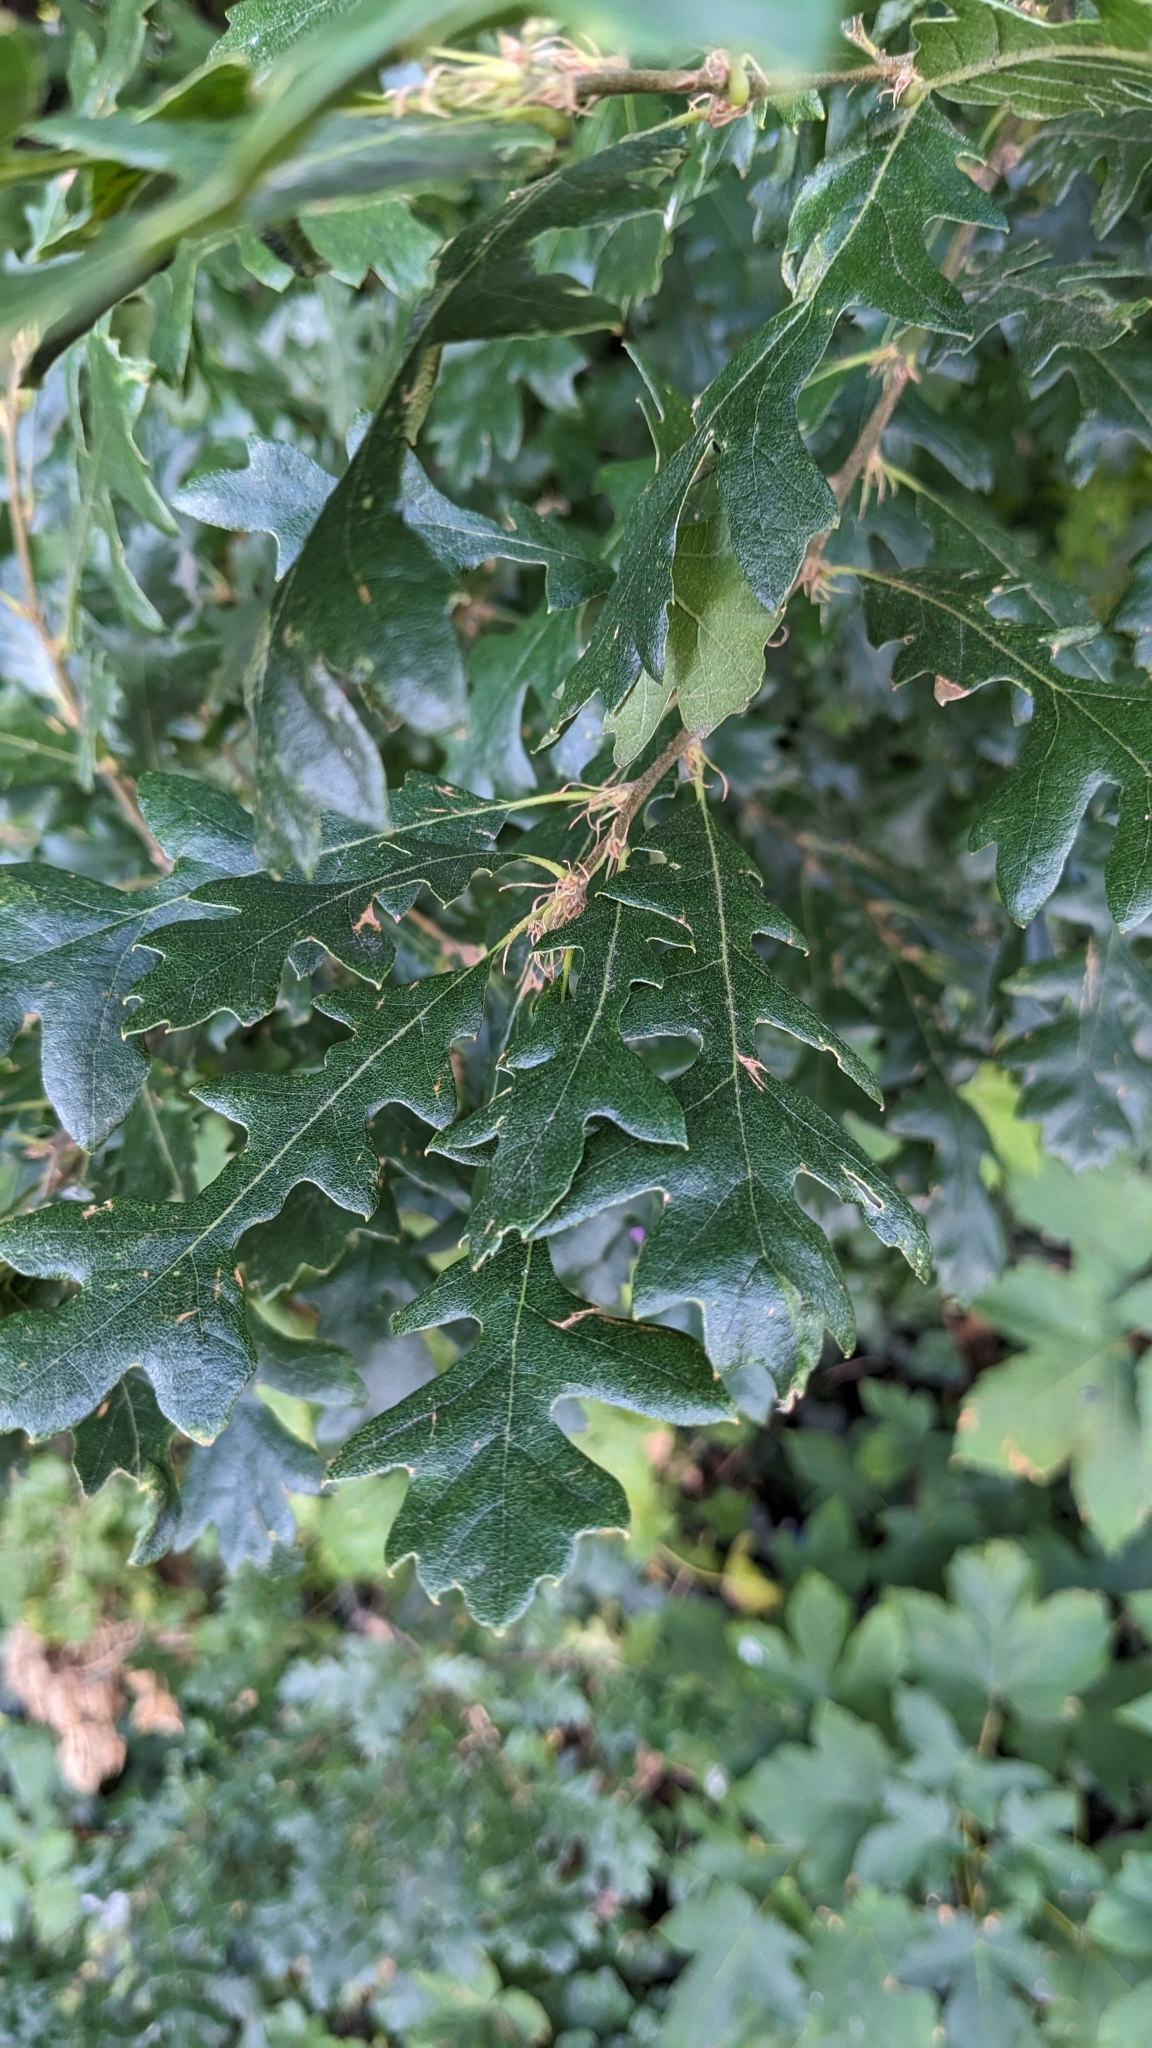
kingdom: Plantae
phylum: Tracheophyta
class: Magnoliopsida
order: Fagales
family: Fagaceae
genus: Quercus
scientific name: Quercus cerris
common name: Turkey oak
